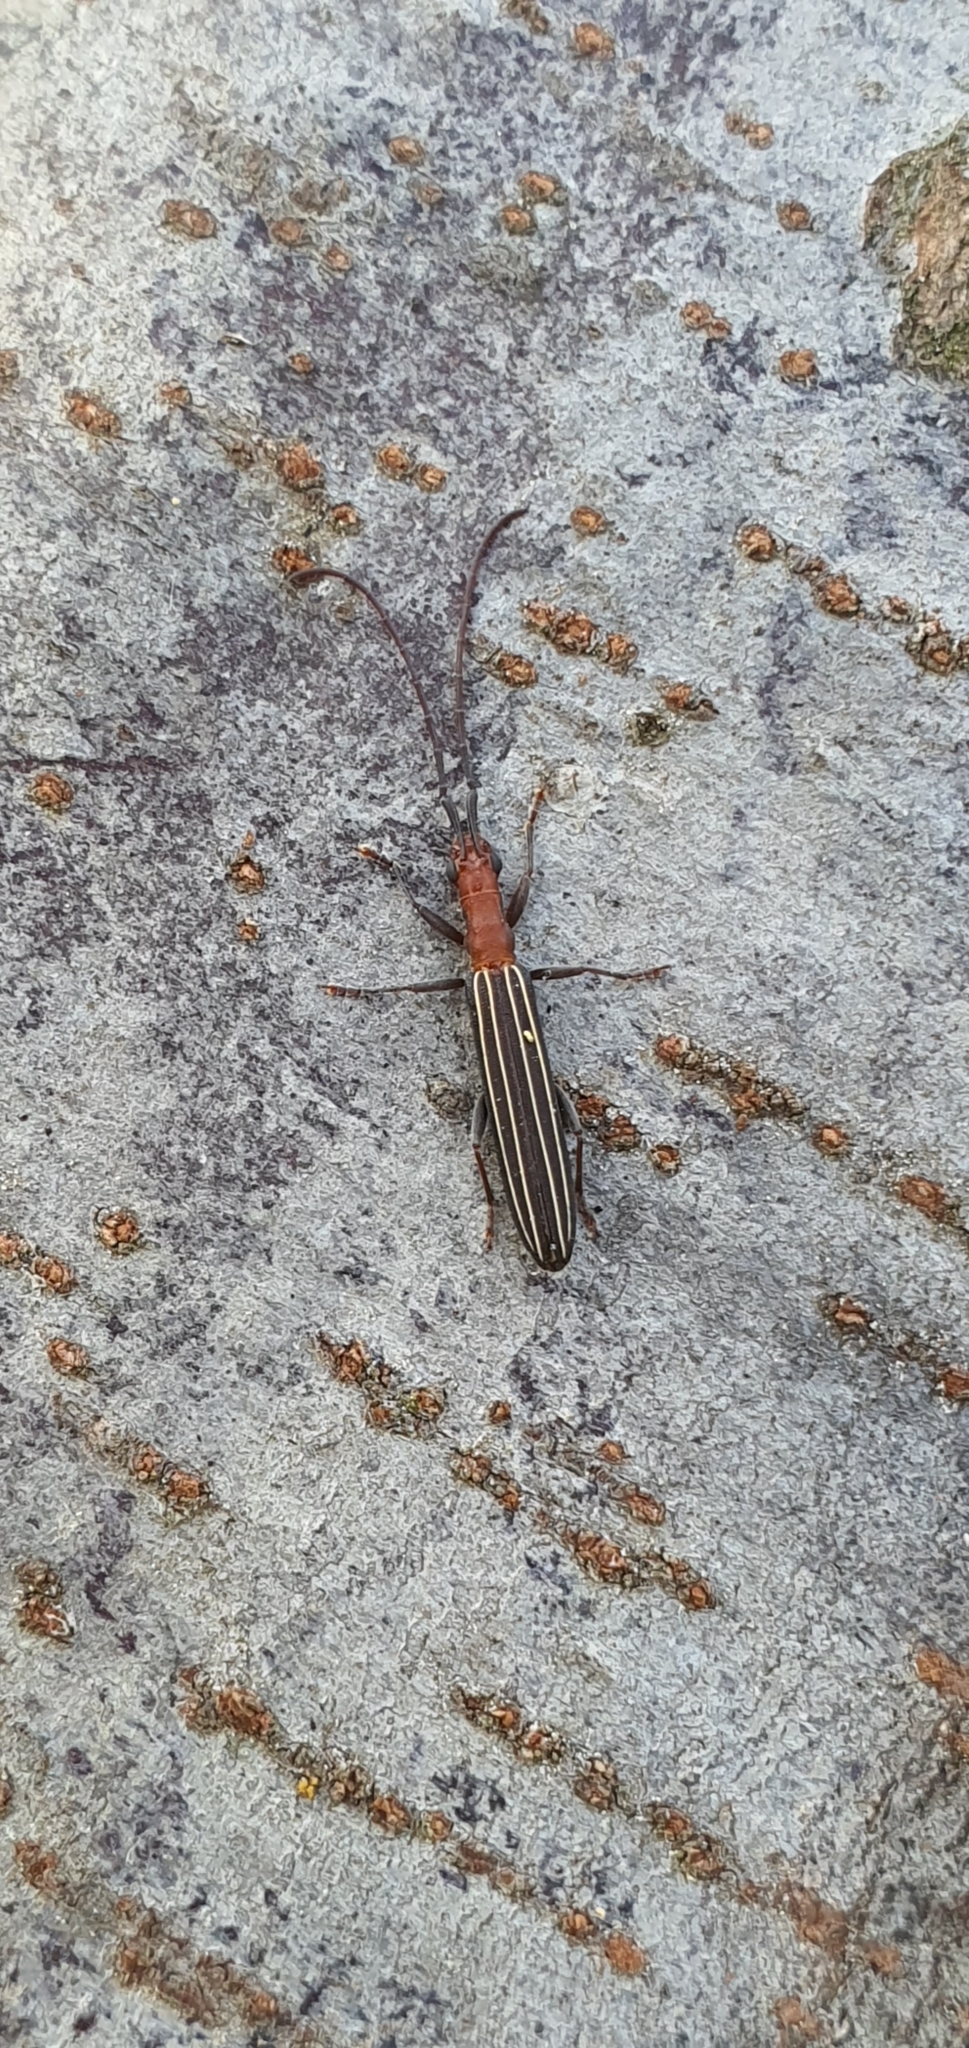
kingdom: Animalia
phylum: Arthropoda
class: Insecta
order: Coleoptera
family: Cerambycidae
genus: Syllitus
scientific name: Syllitus rectus
